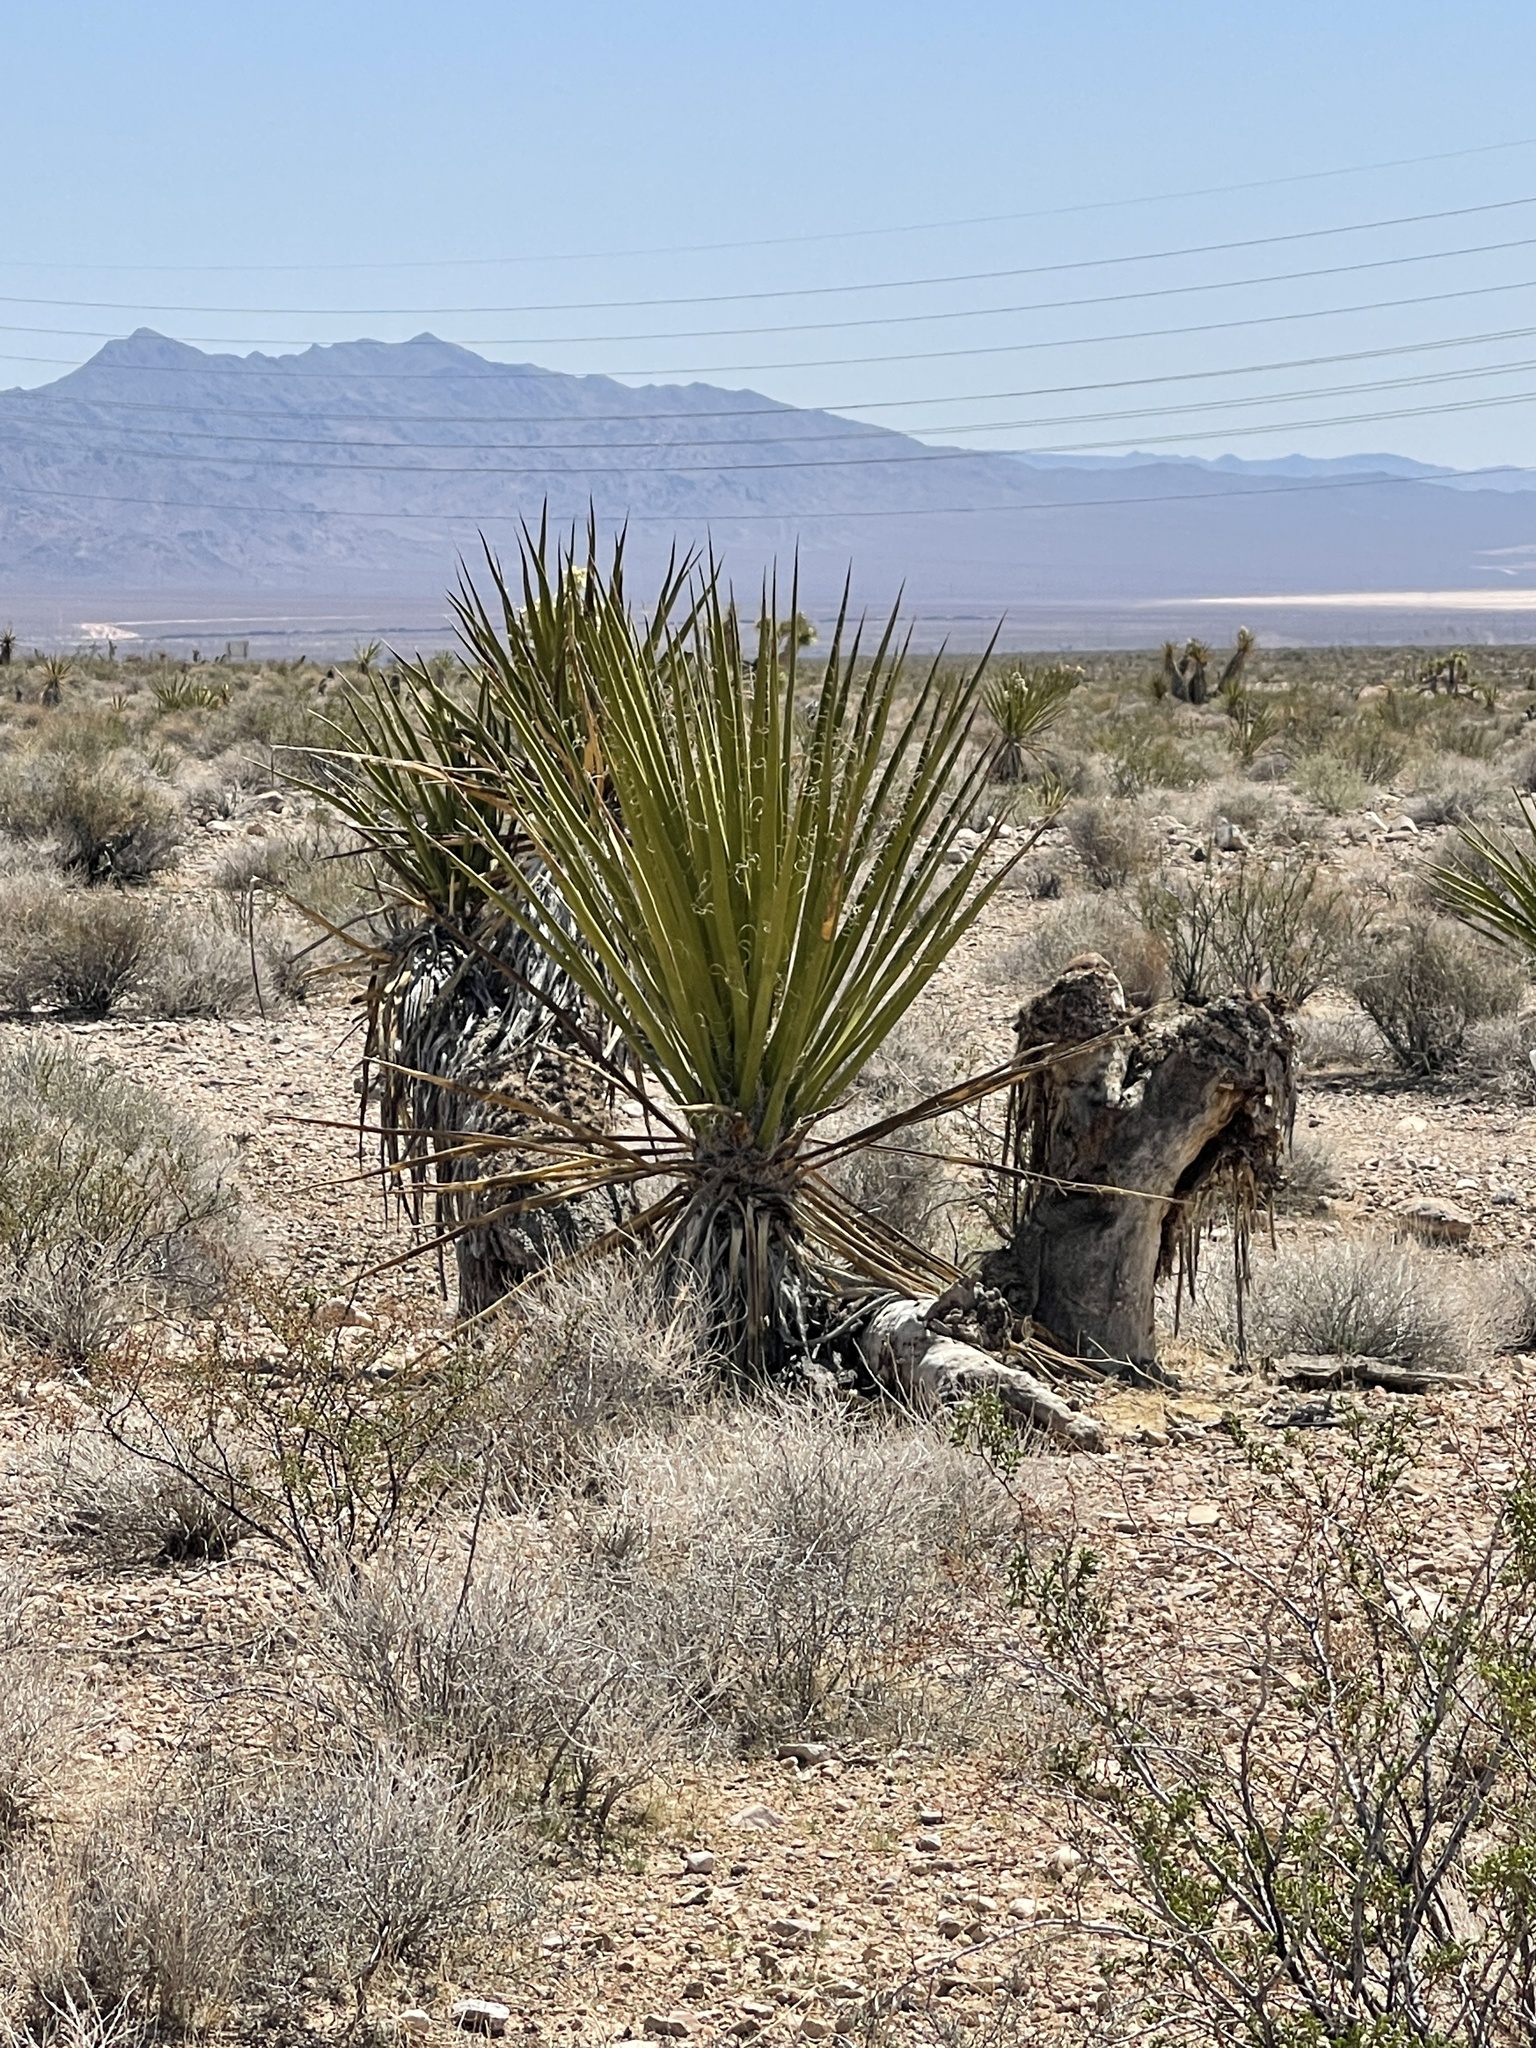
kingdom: Plantae
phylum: Tracheophyta
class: Liliopsida
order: Asparagales
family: Asparagaceae
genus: Yucca
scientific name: Yucca schidigera
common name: Mojave yucca
